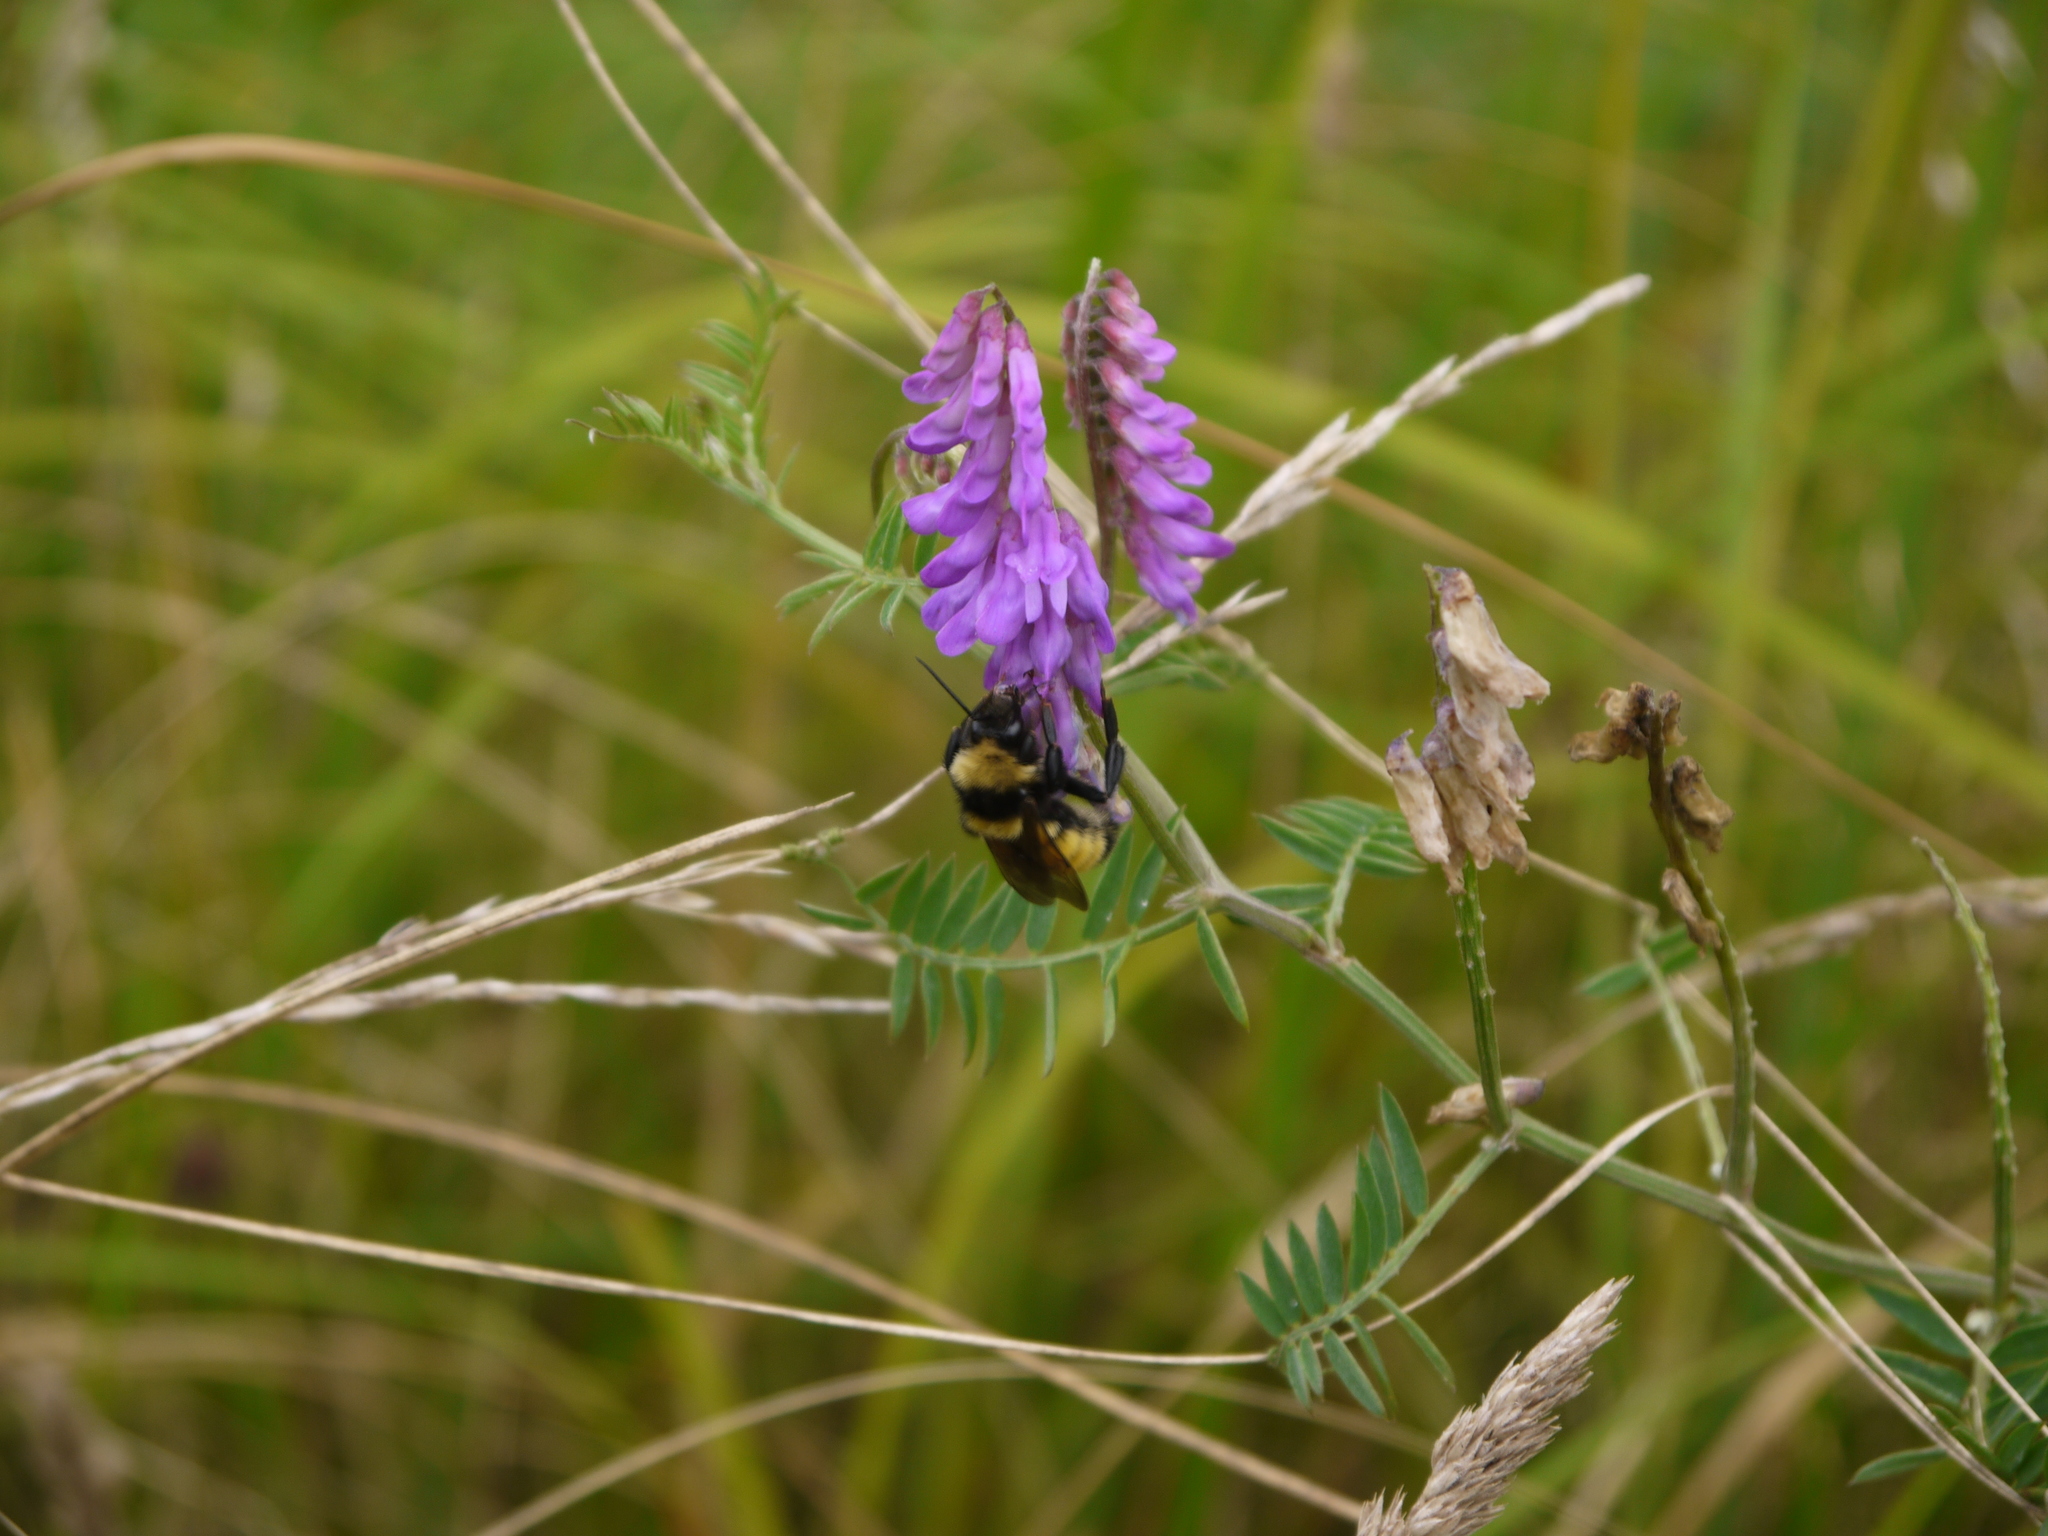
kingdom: Animalia
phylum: Arthropoda
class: Insecta
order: Hymenoptera
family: Apidae
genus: Bombus
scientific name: Bombus borealis
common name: Northern amber bumble bee
